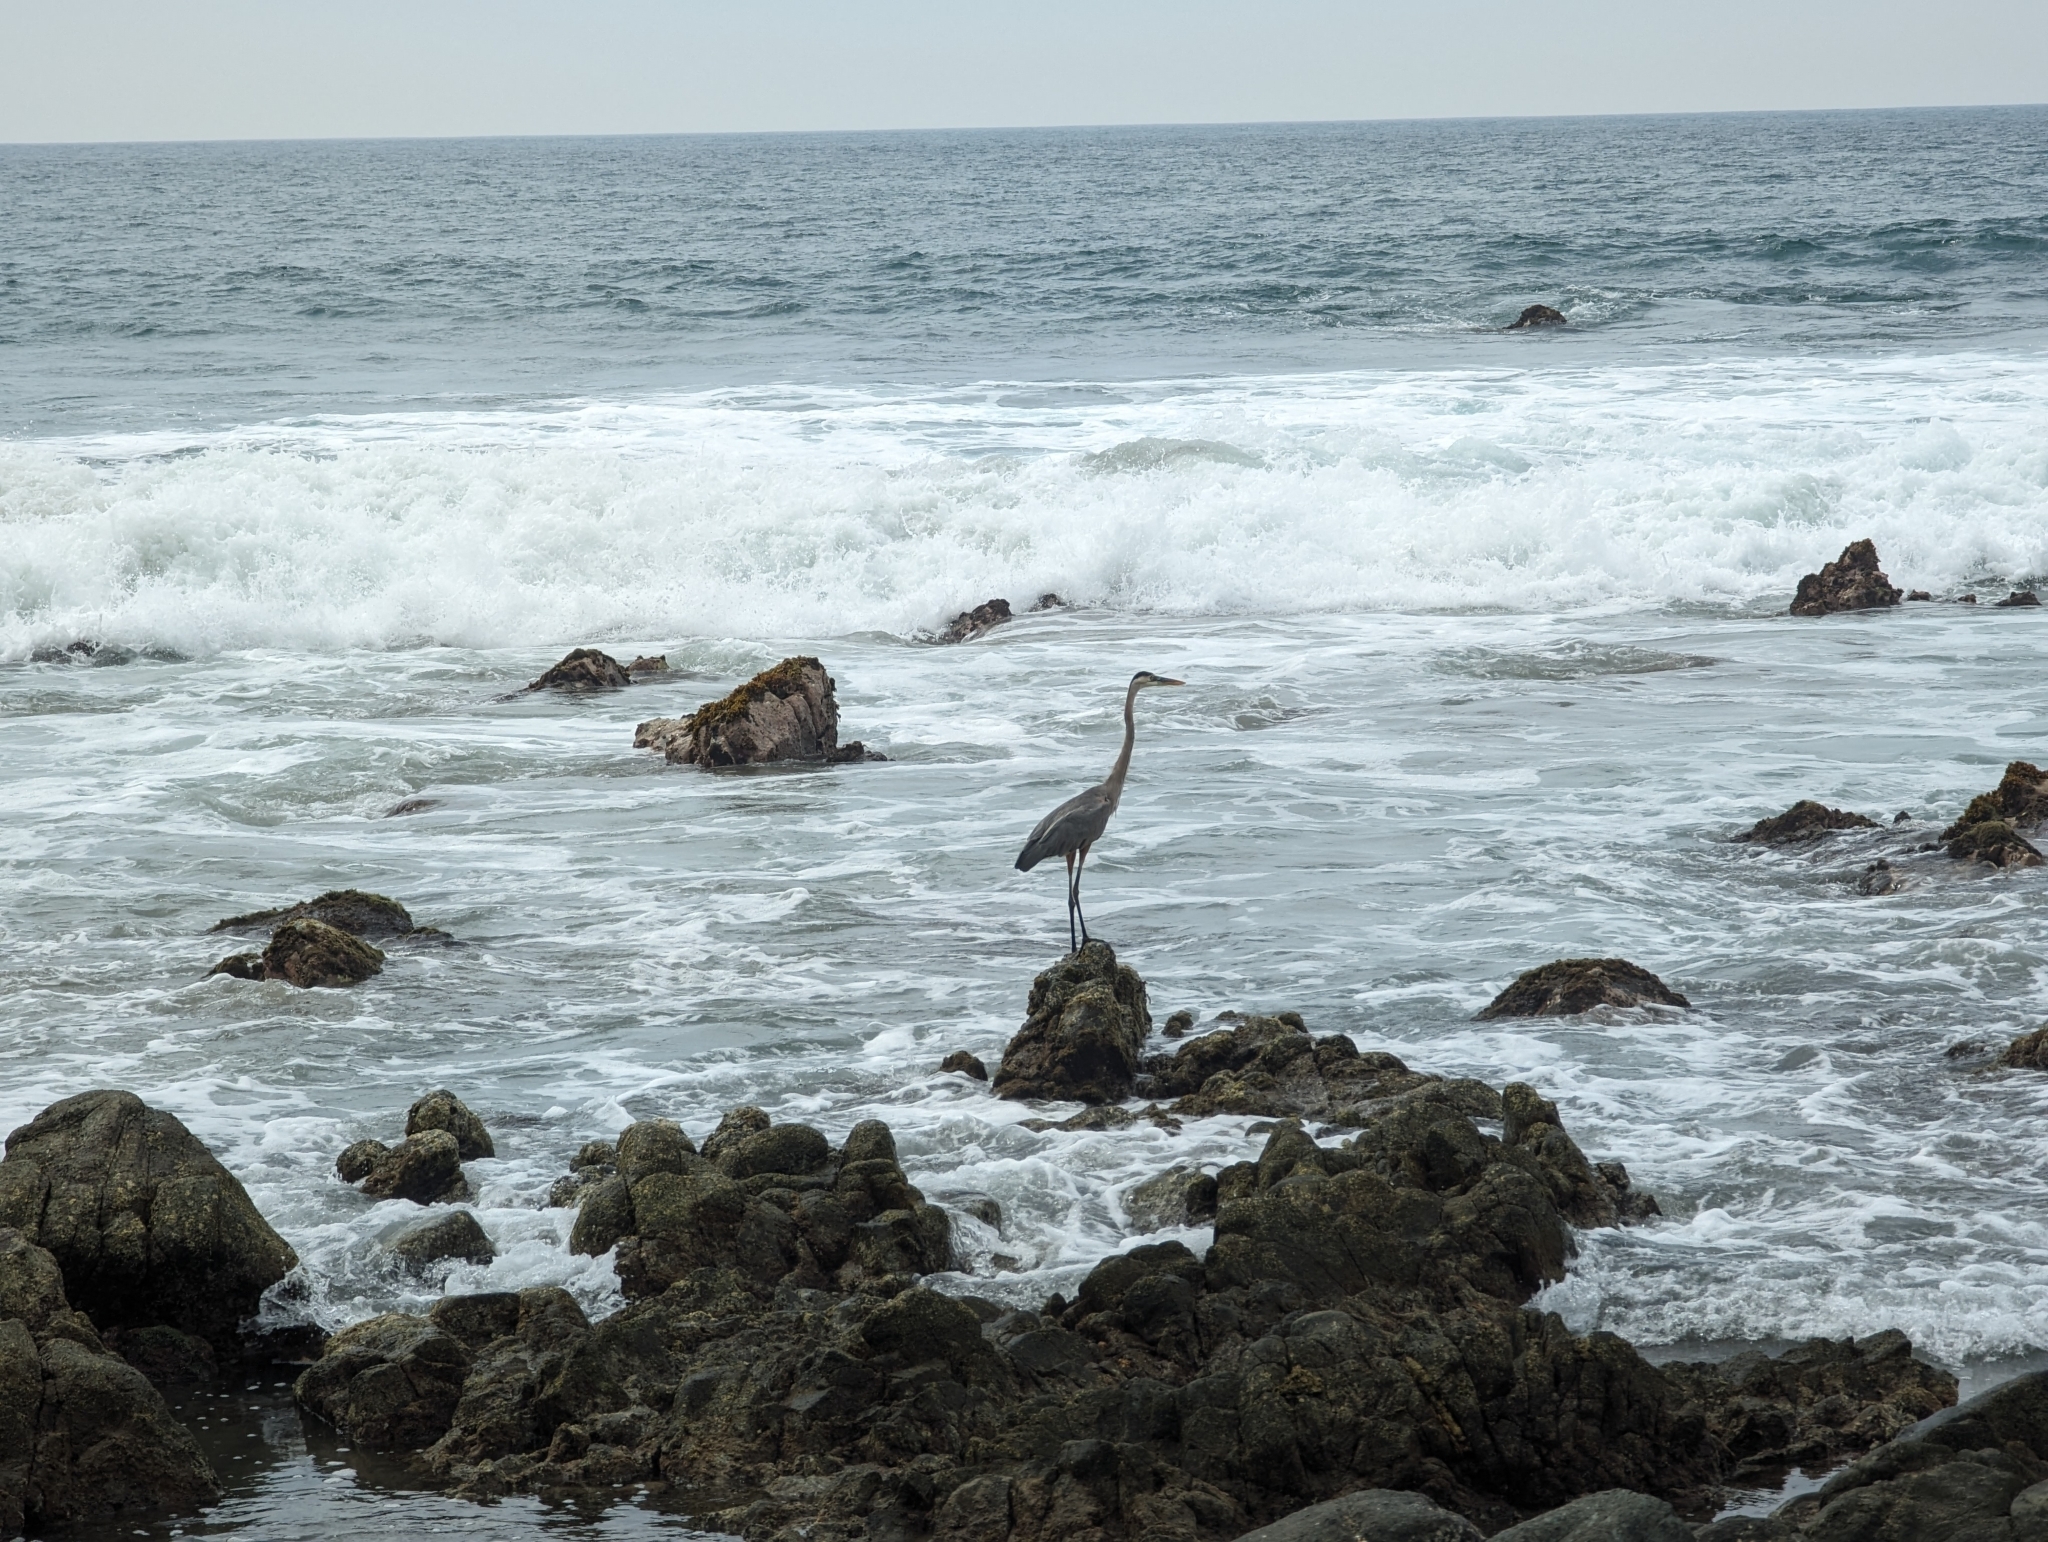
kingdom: Animalia
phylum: Chordata
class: Aves
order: Pelecaniformes
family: Ardeidae
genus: Ardea
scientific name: Ardea herodias
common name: Great blue heron
